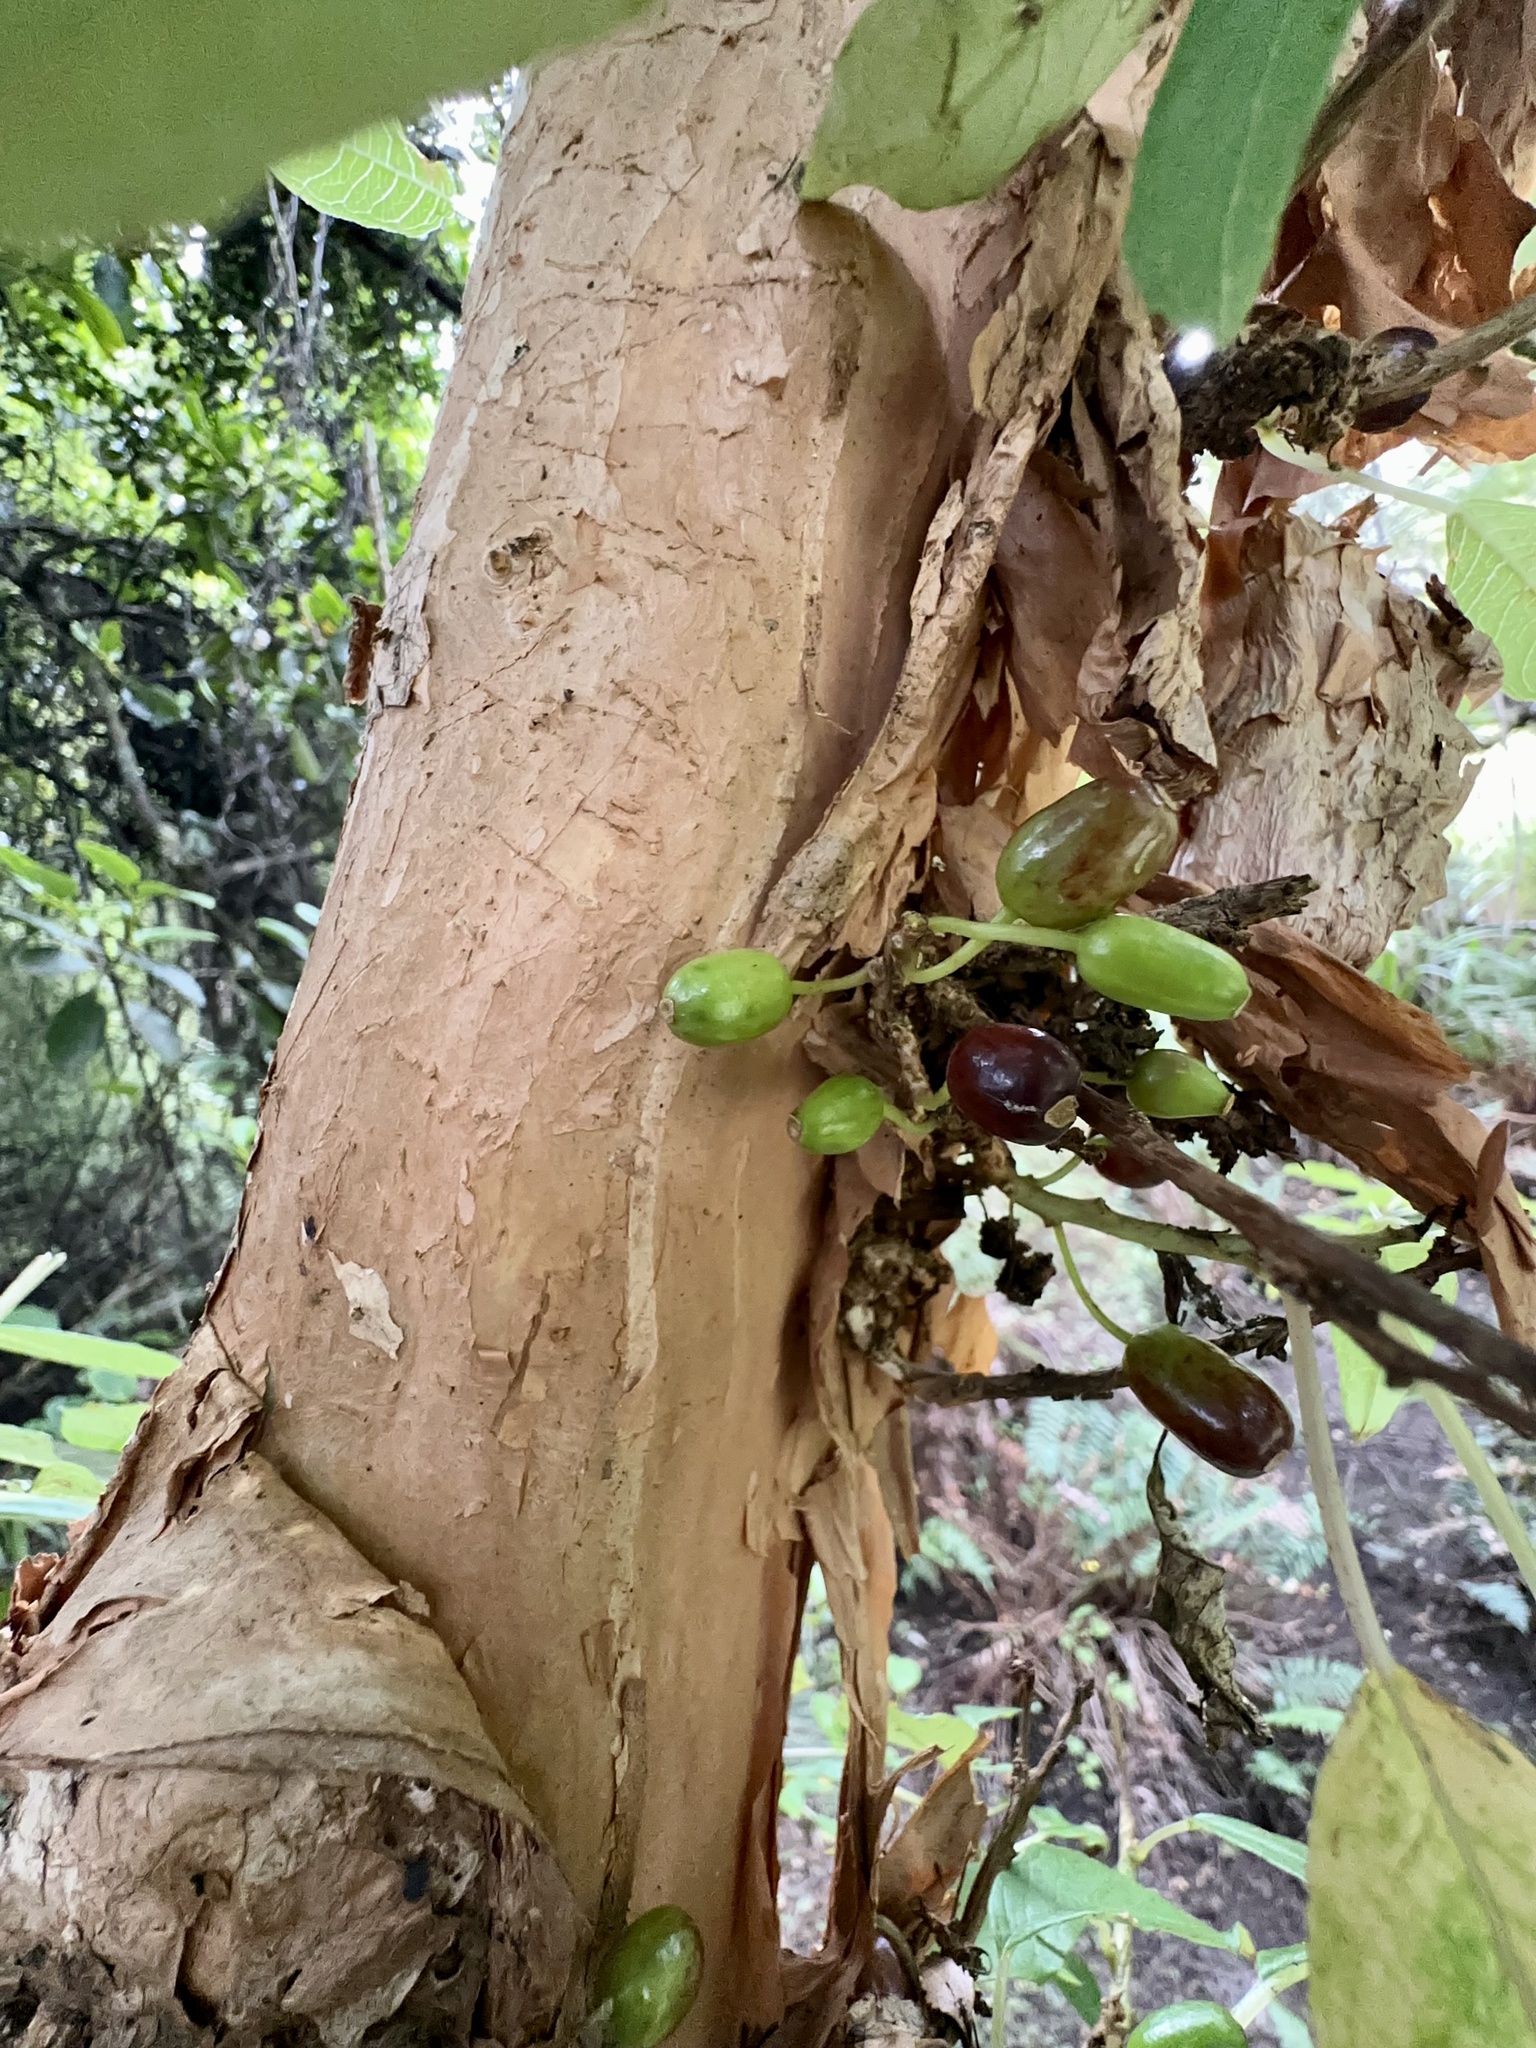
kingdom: Plantae
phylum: Tracheophyta
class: Magnoliopsida
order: Myrtales
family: Onagraceae
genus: Fuchsia
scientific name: Fuchsia excorticata
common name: Tree fuchsia
